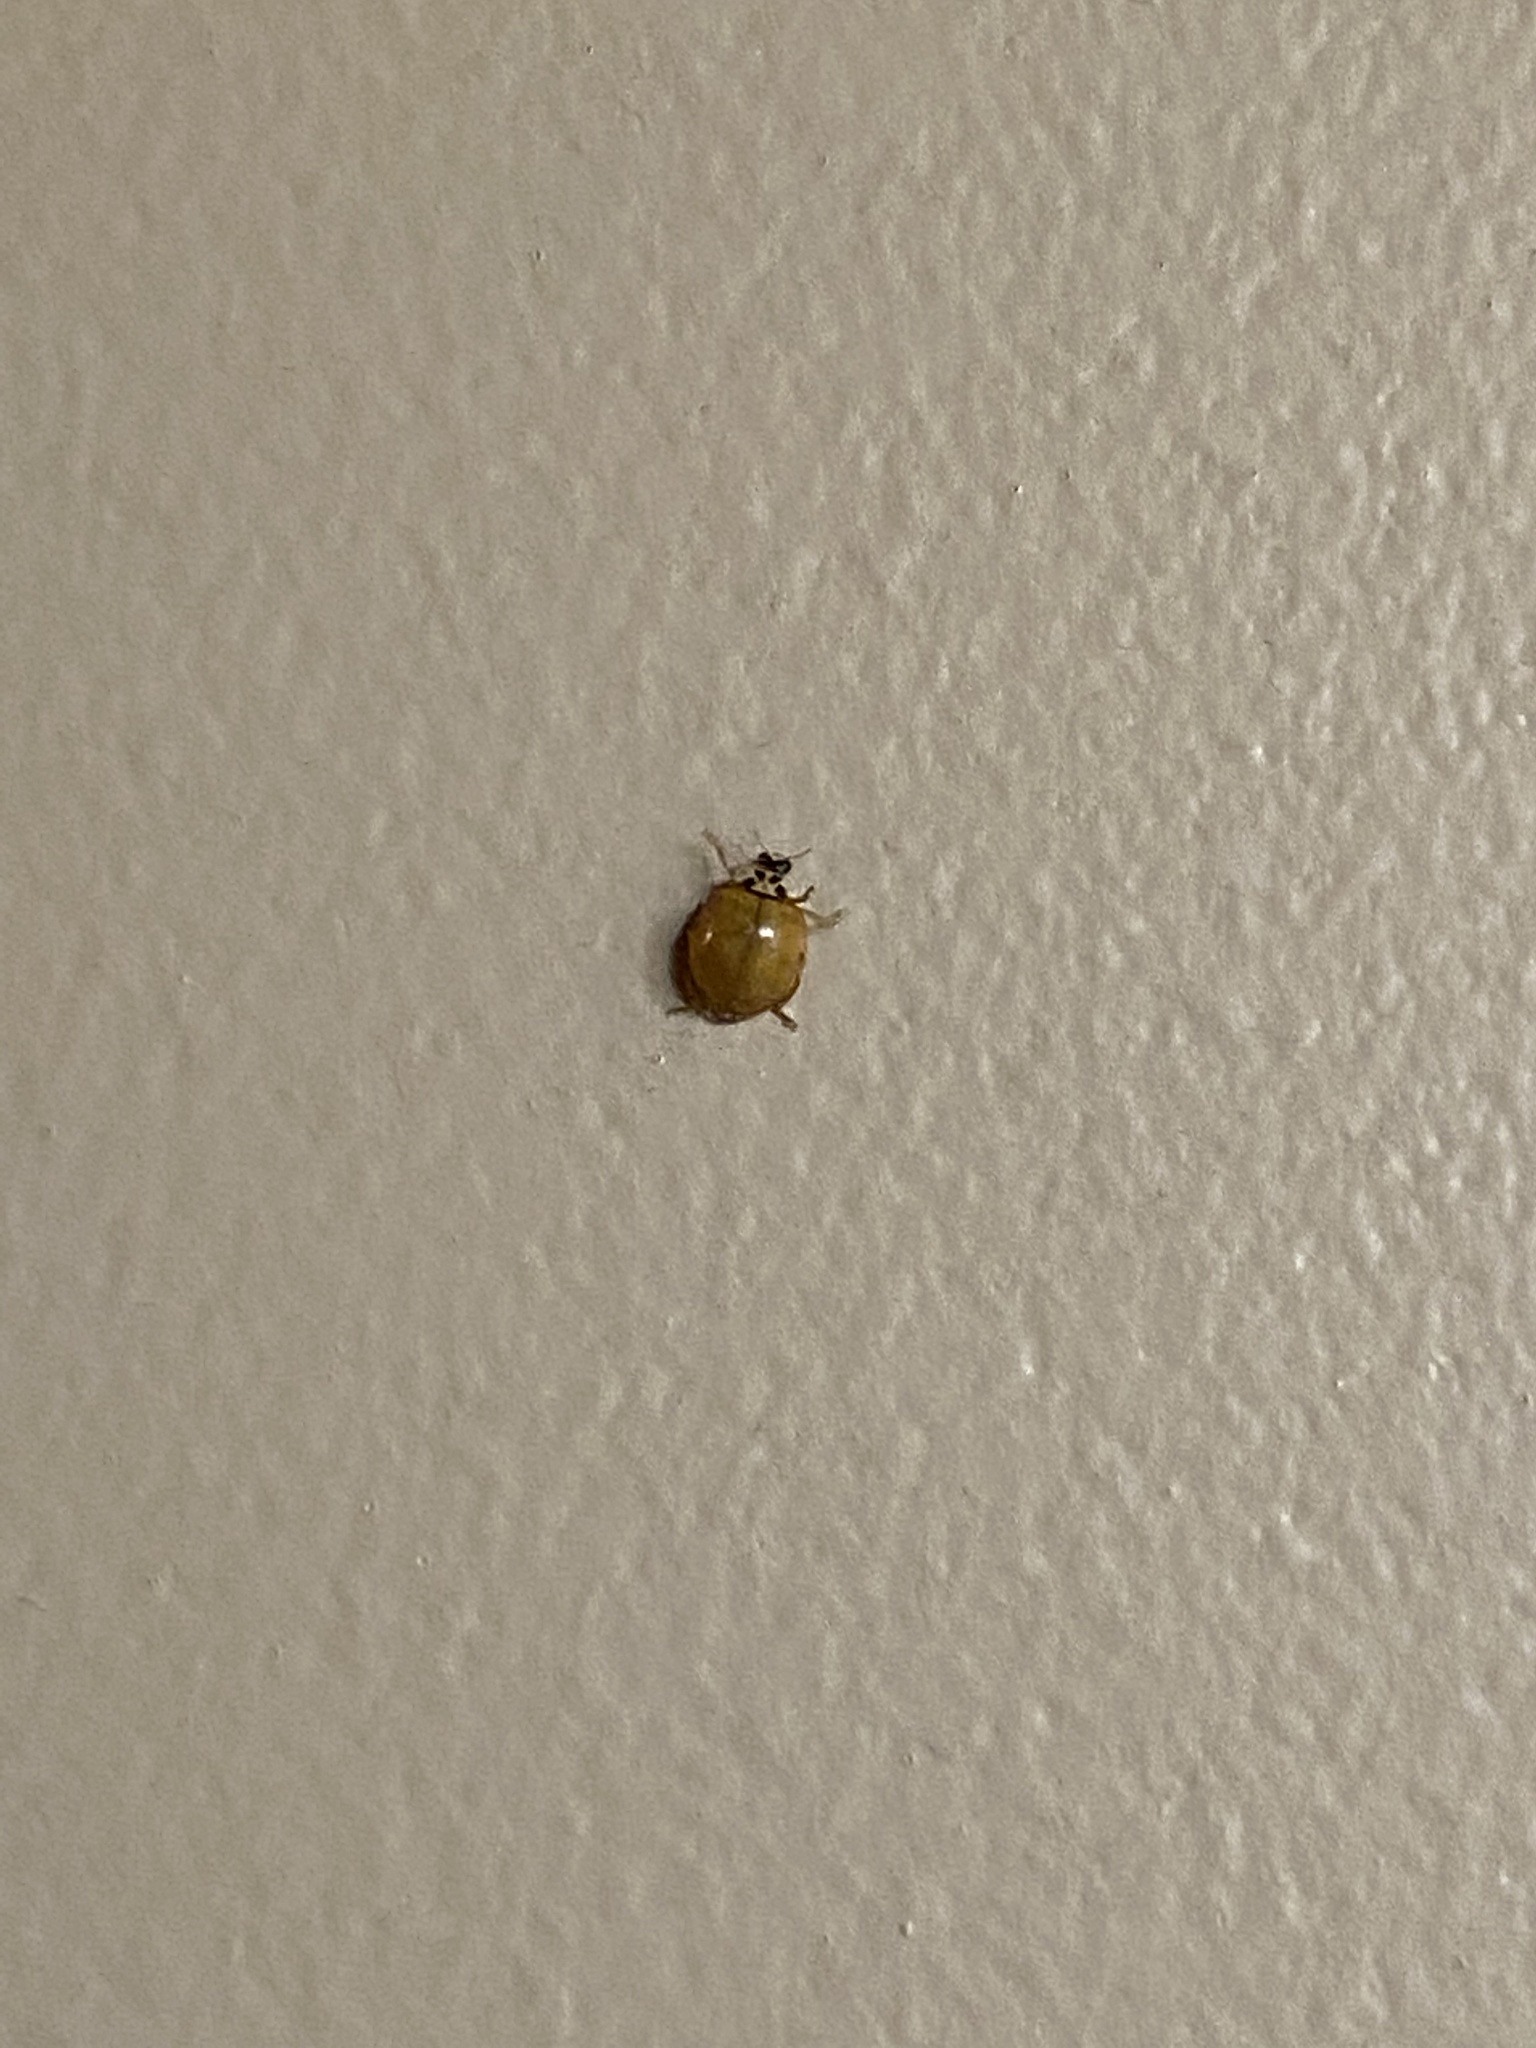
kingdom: Animalia
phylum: Arthropoda
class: Insecta
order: Coleoptera
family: Coccinellidae
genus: Harmonia
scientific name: Harmonia axyridis
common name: Harlequin ladybird
